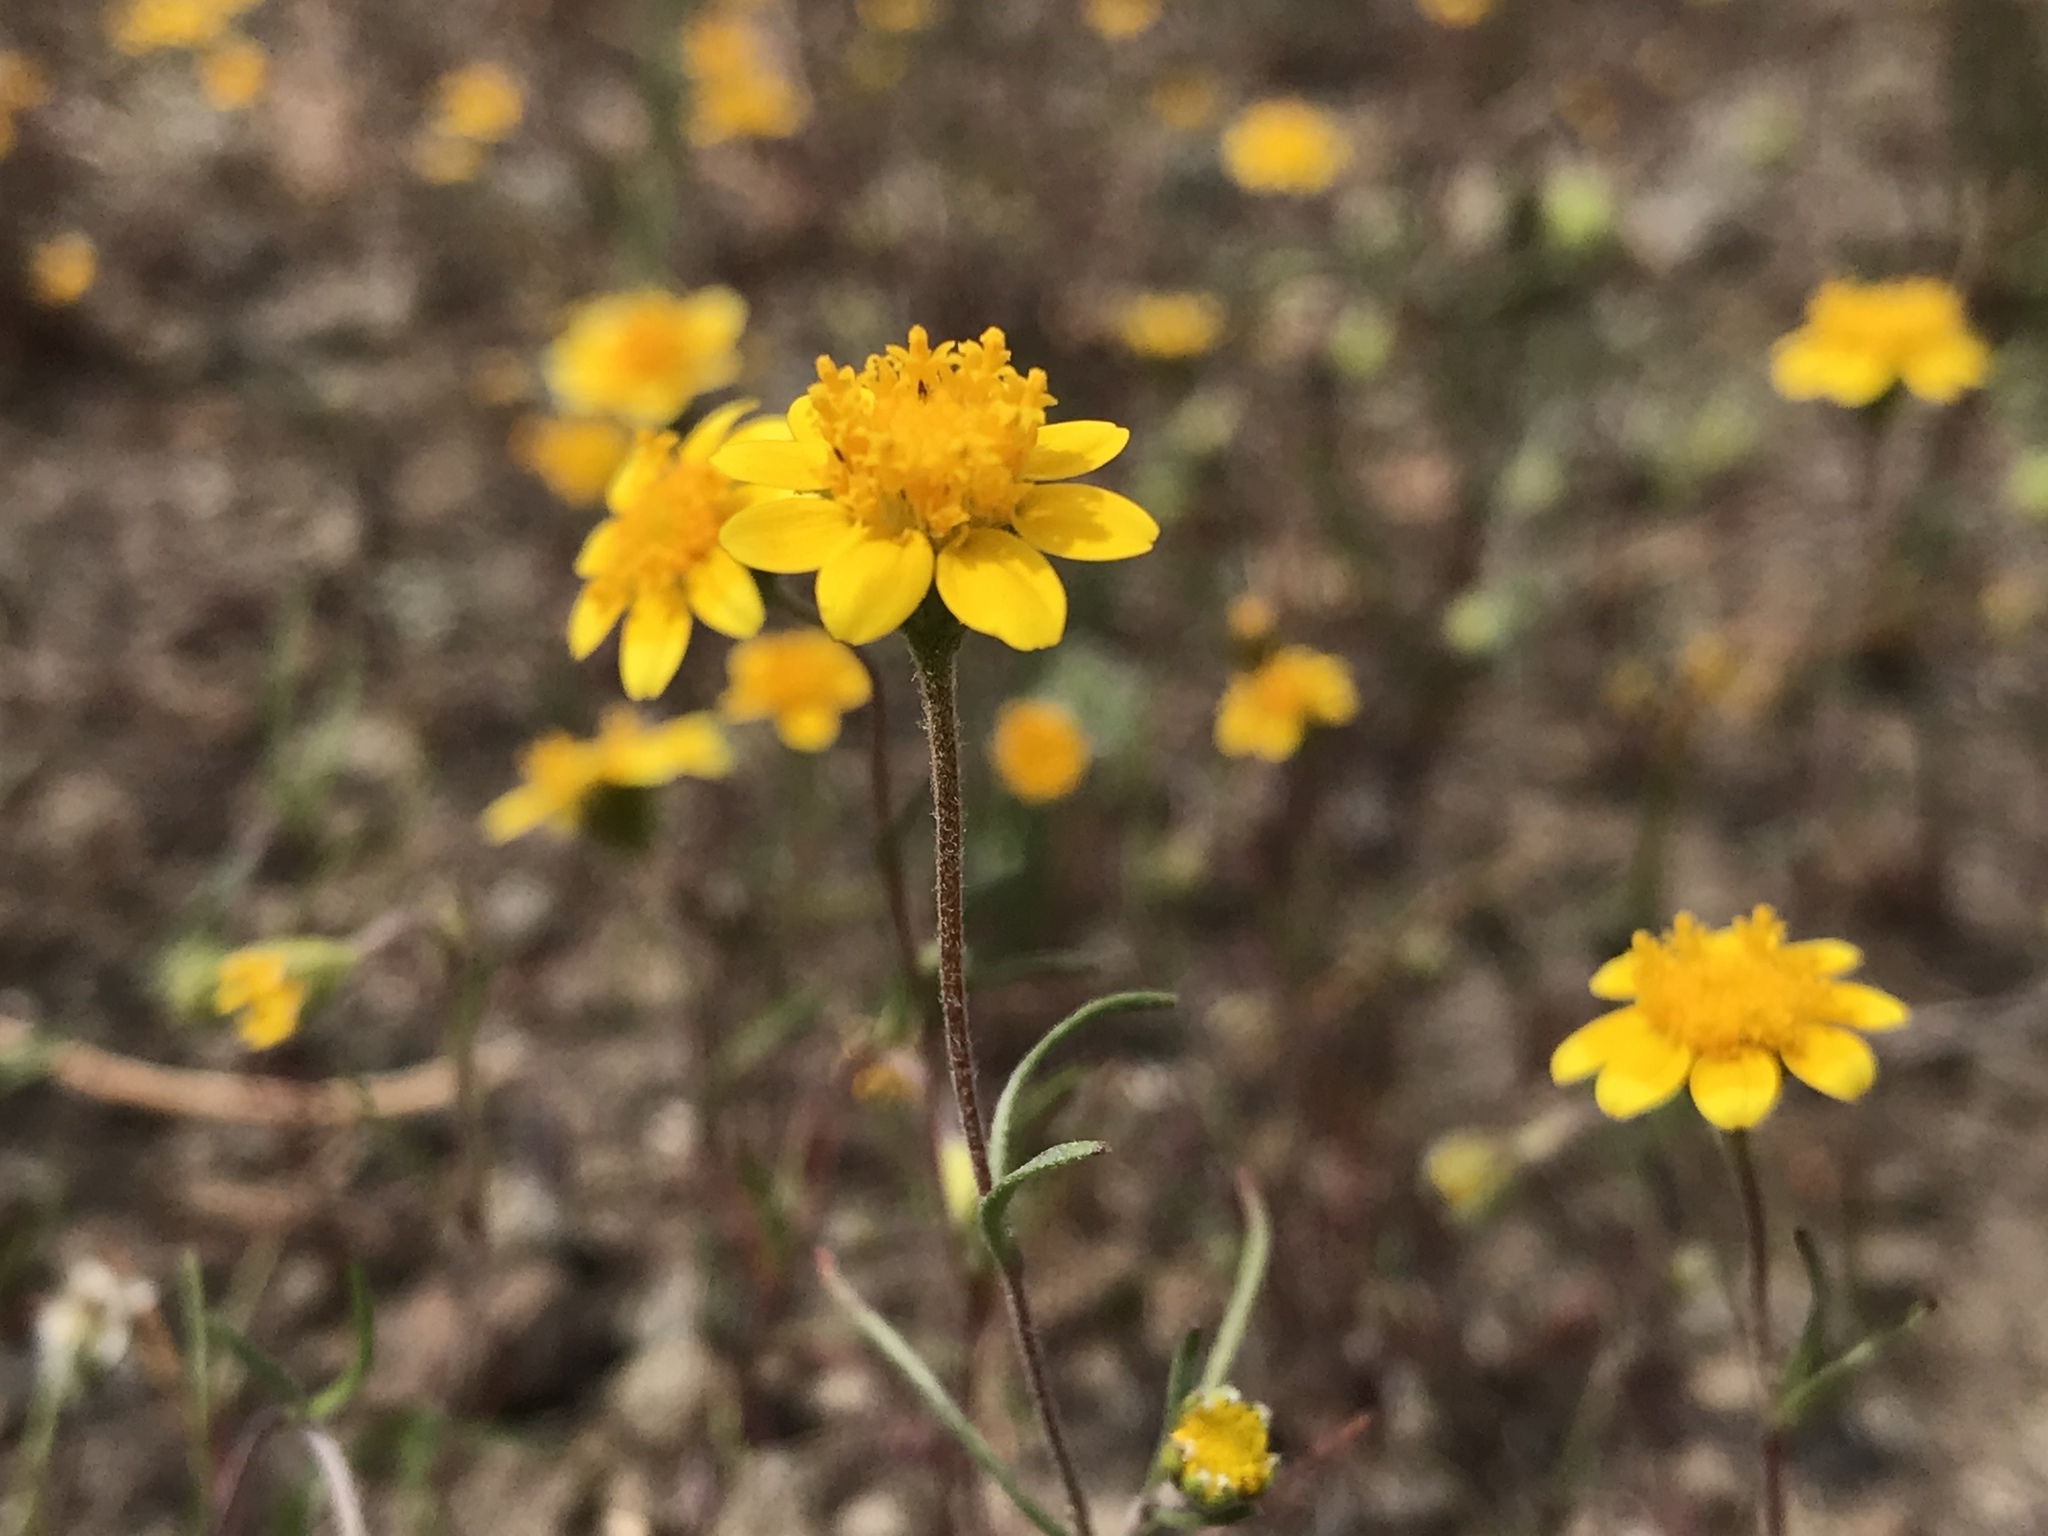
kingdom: Plantae
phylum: Tracheophyta
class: Magnoliopsida
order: Asterales
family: Asteraceae
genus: Lasthenia
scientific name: Lasthenia californica
